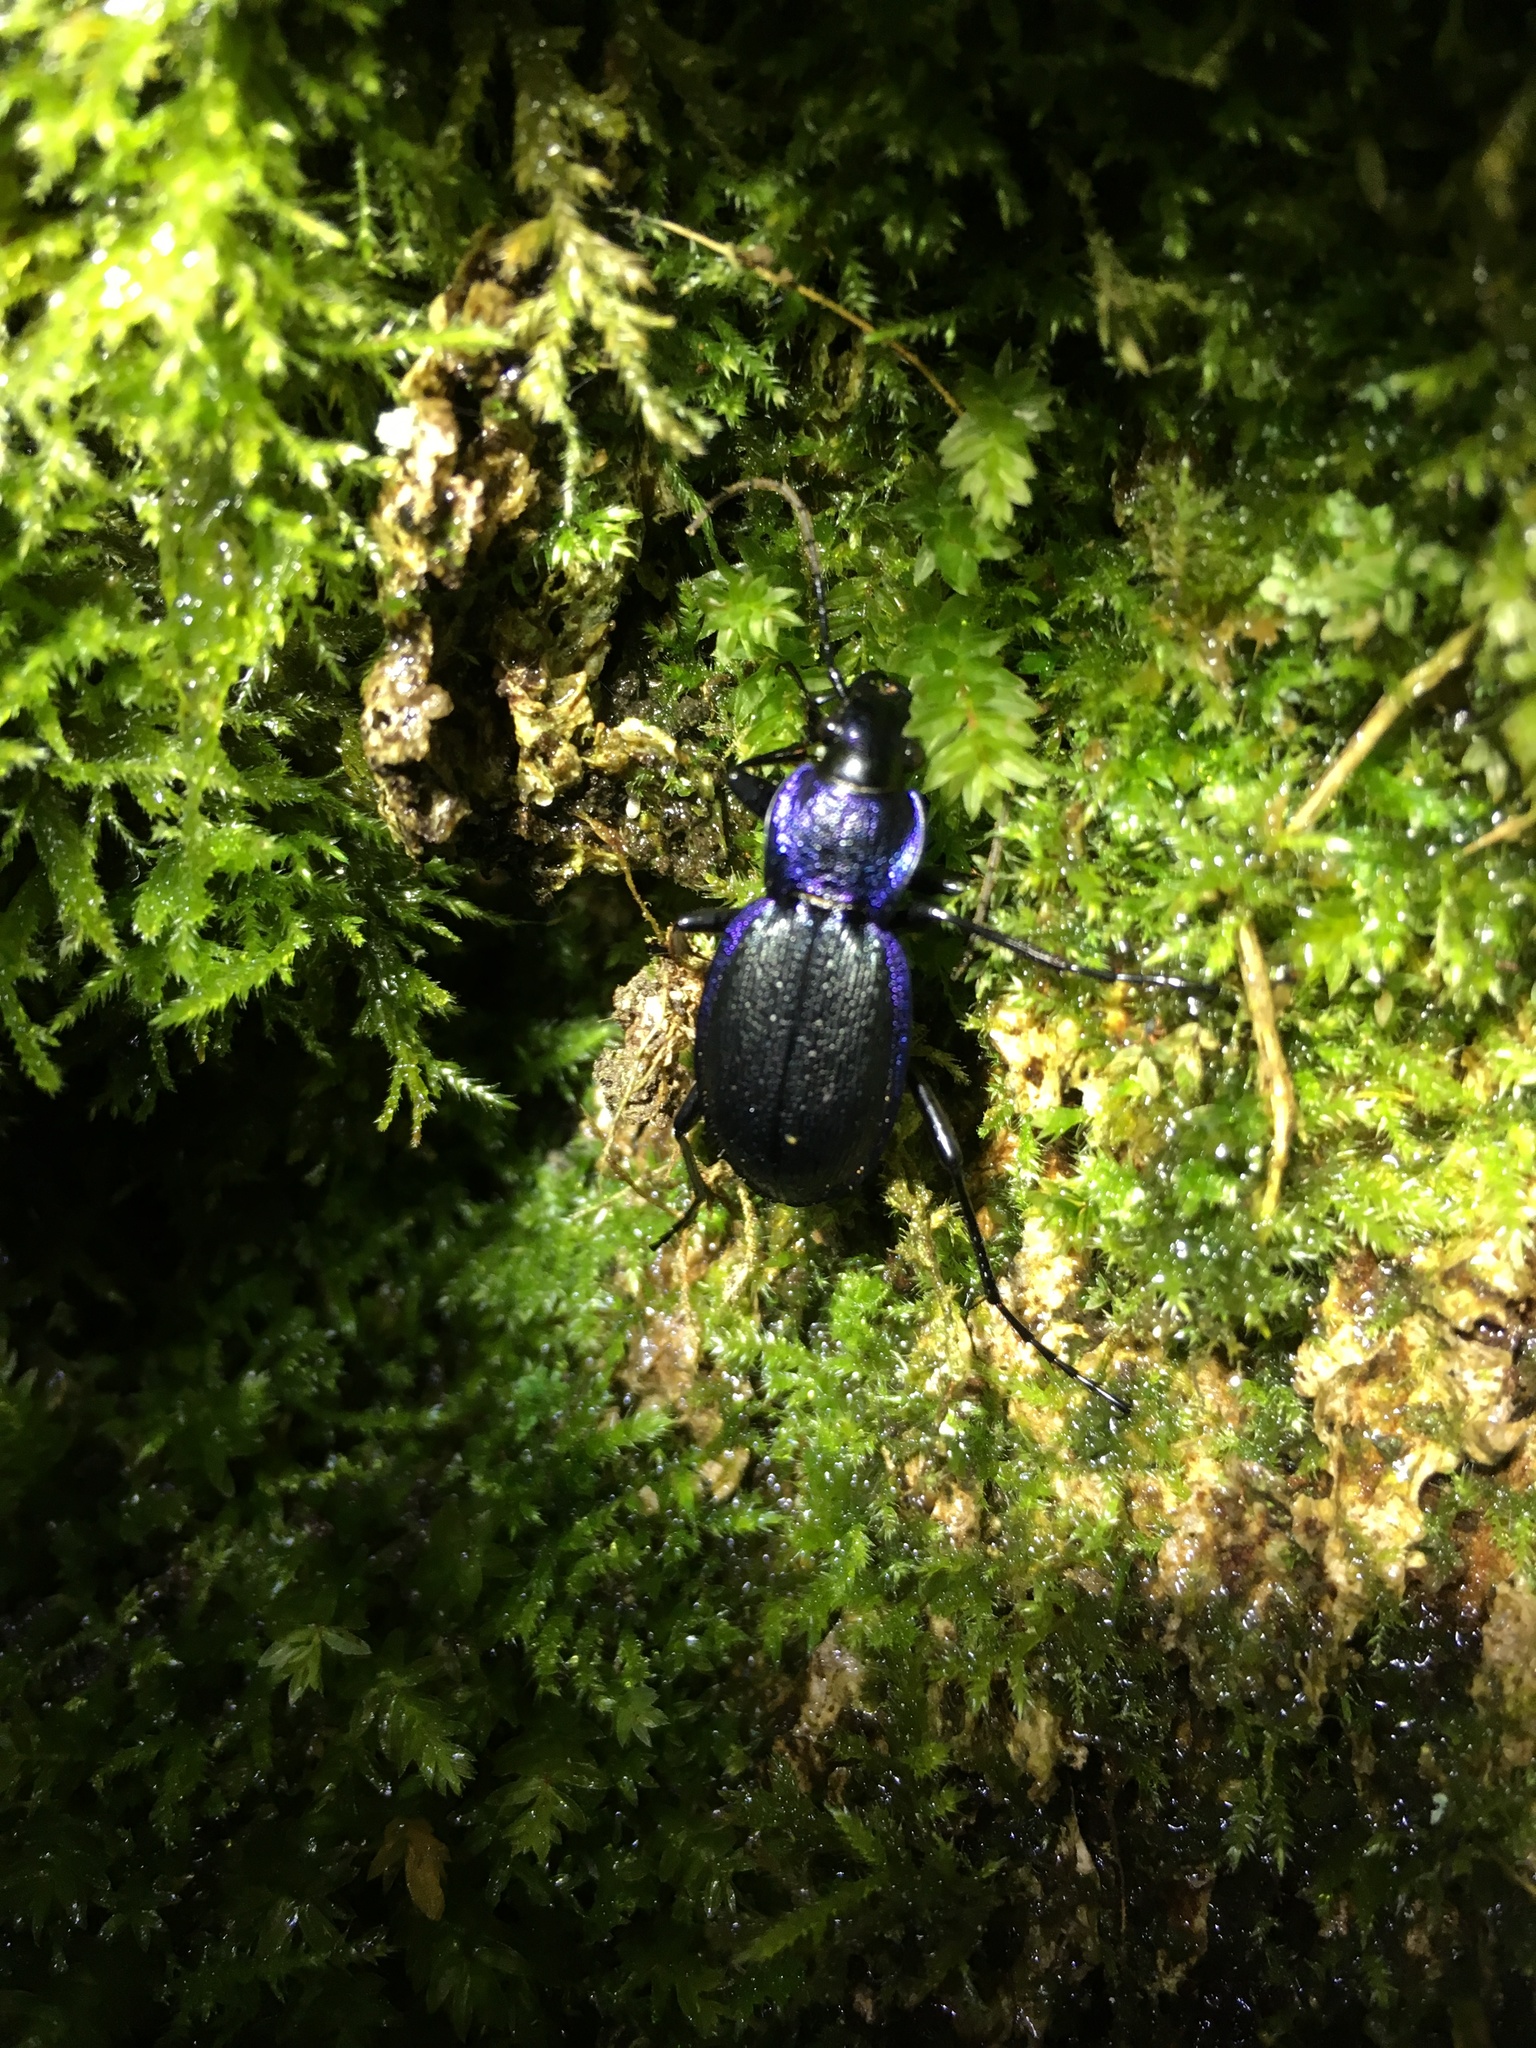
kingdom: Animalia
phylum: Arthropoda
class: Insecta
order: Coleoptera
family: Carabidae
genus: Carabus
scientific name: Carabus problematicus
